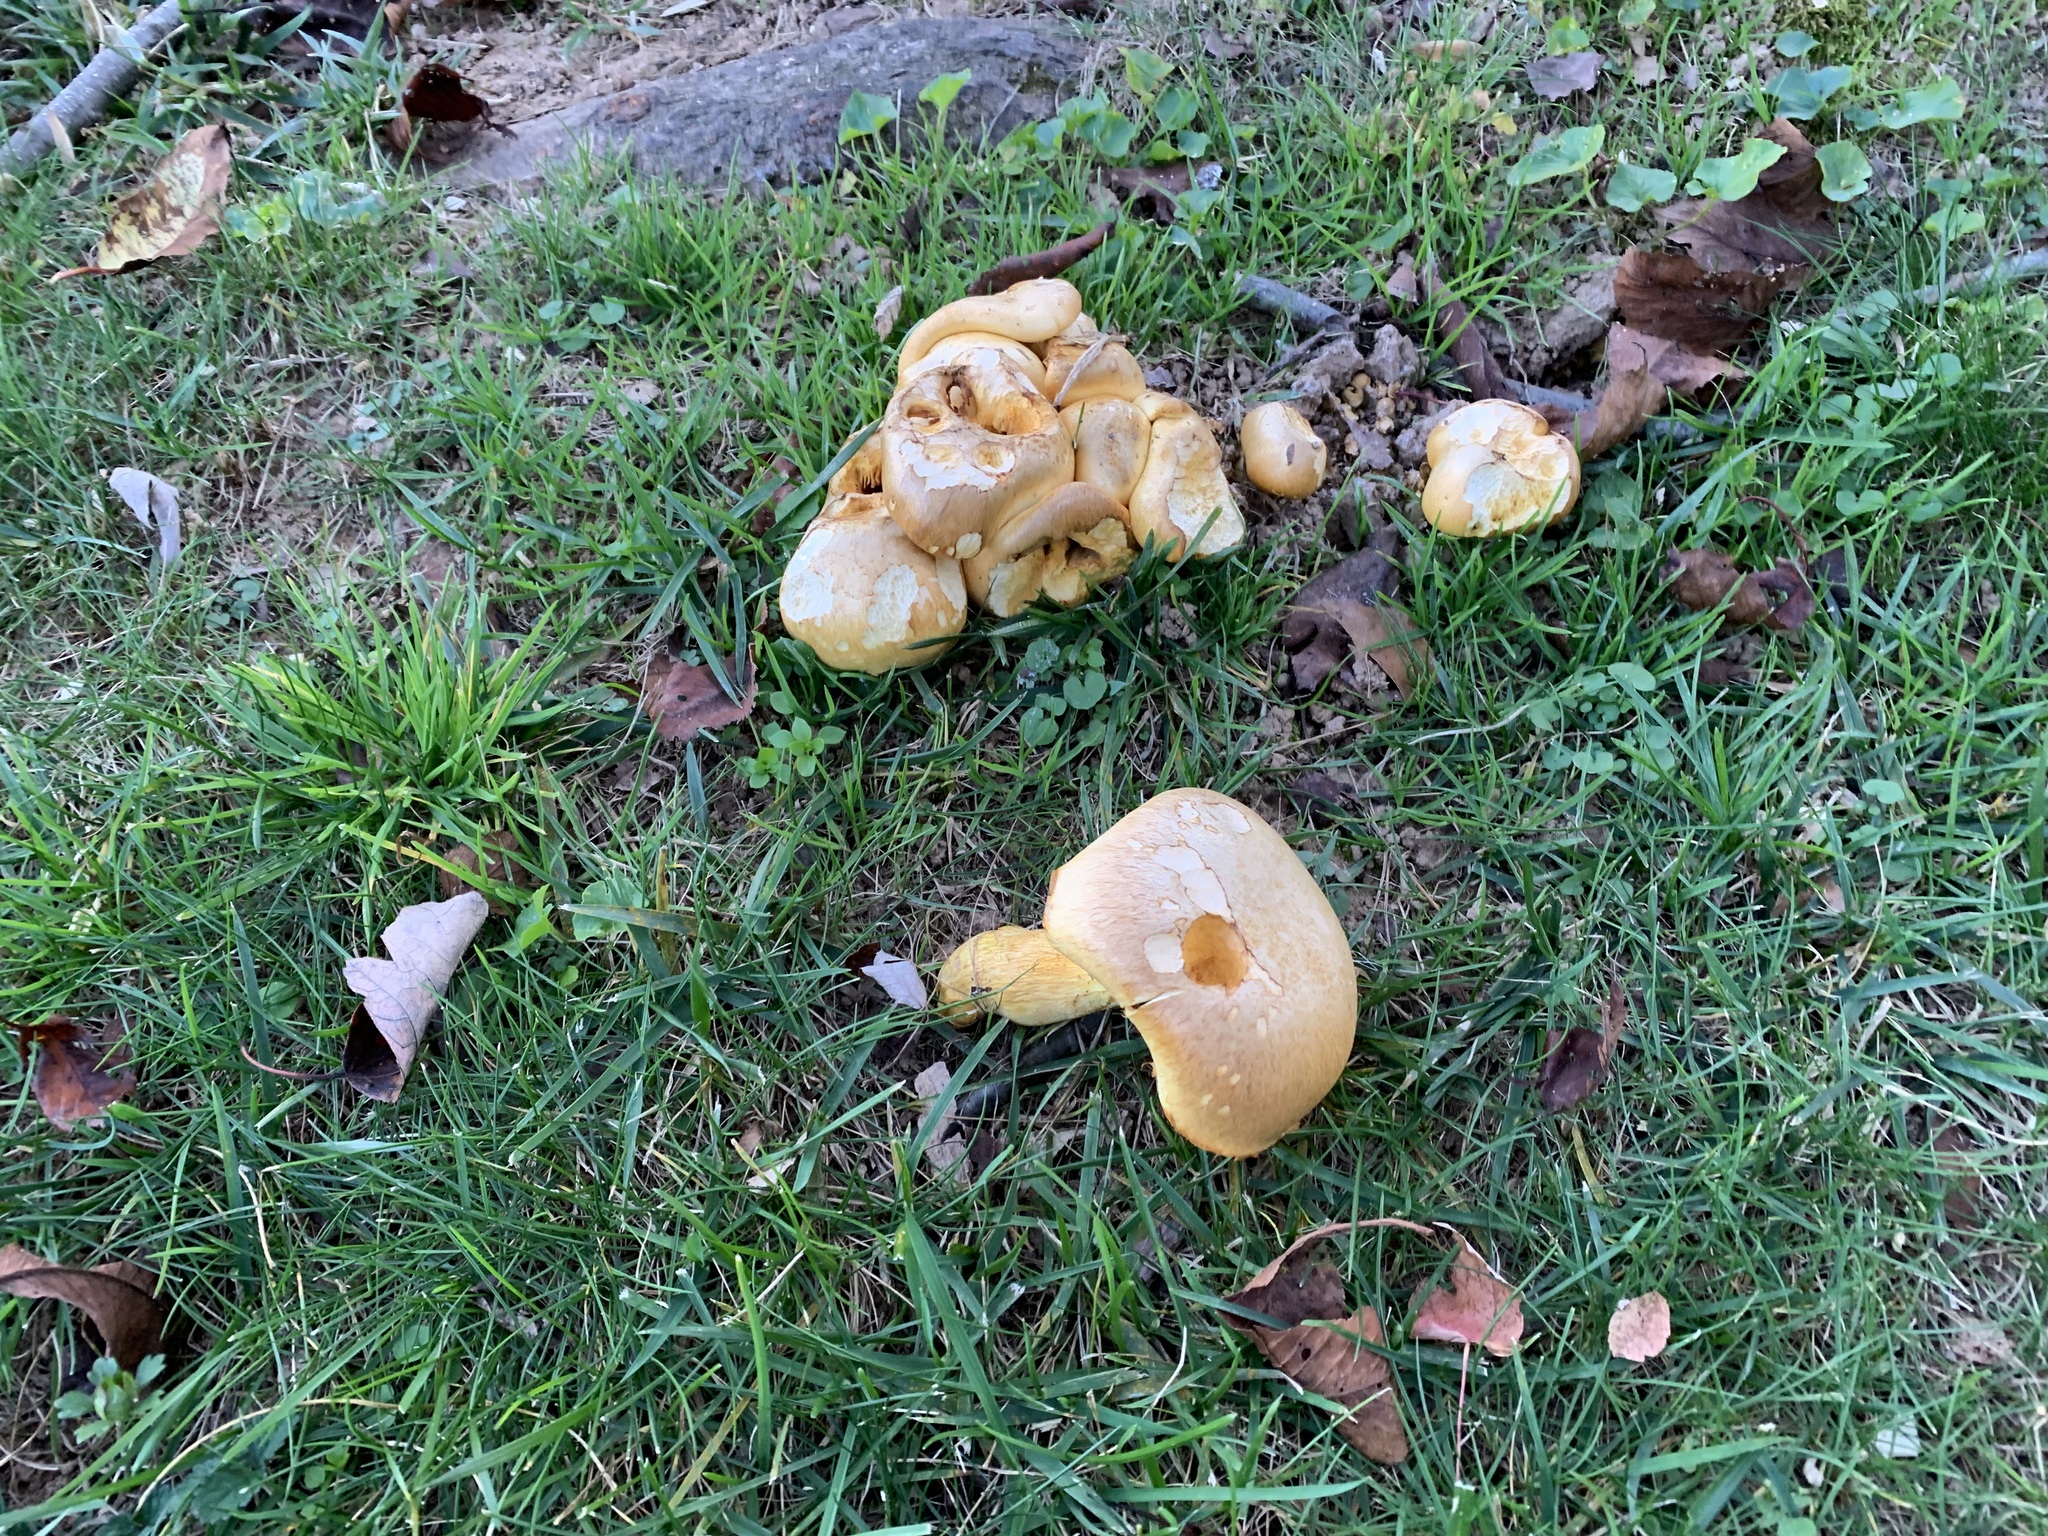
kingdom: Fungi
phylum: Basidiomycota
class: Agaricomycetes
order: Agaricales
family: Hymenogastraceae
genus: Gymnopilus
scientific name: Gymnopilus subspectabilis
